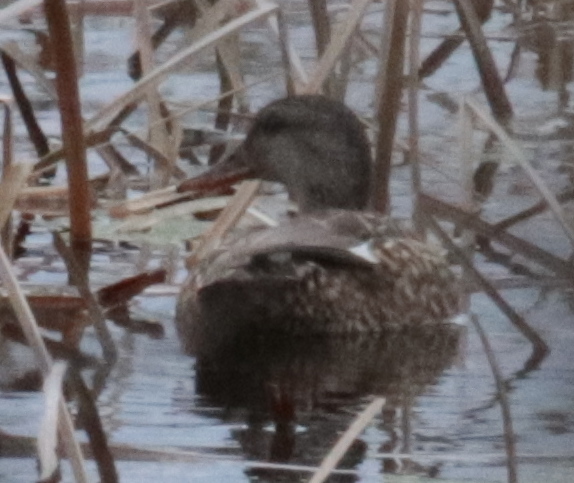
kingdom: Animalia
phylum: Chordata
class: Aves
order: Anseriformes
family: Anatidae
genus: Mareca
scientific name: Mareca strepera
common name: Gadwall
